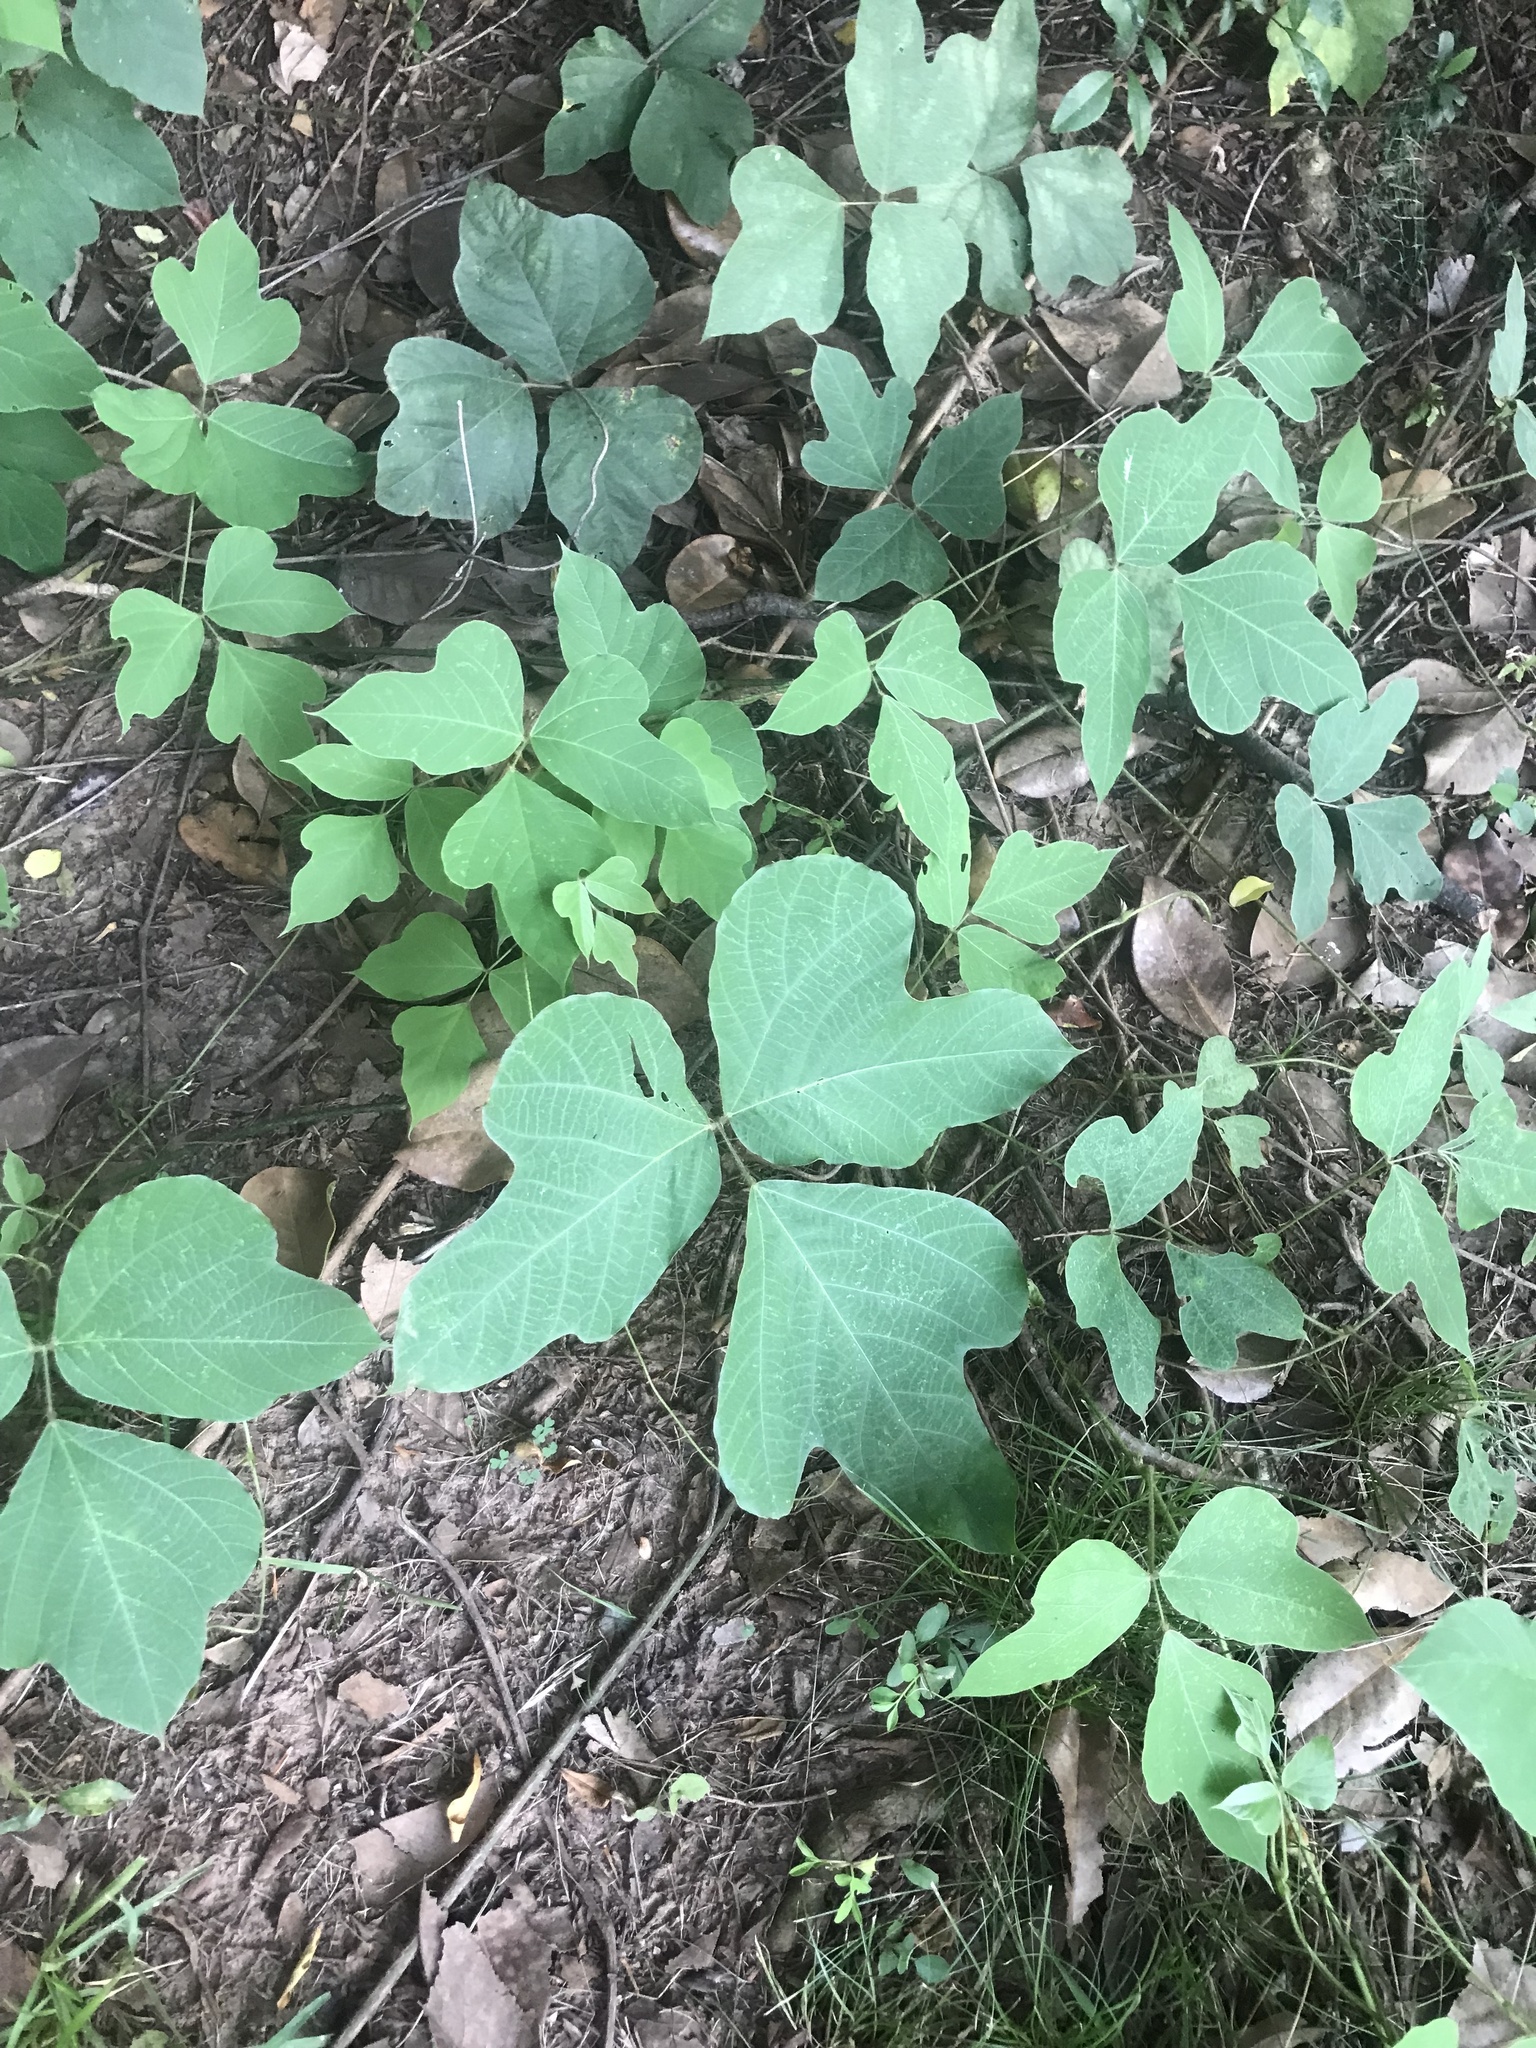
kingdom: Plantae
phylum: Tracheophyta
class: Magnoliopsida
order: Fabales
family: Fabaceae
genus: Pueraria
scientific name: Pueraria montana
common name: Kudzu
